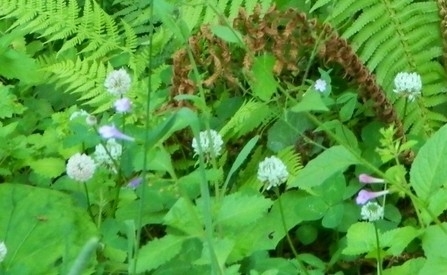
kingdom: Plantae
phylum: Tracheophyta
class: Magnoliopsida
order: Fabales
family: Fabaceae
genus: Trifolium
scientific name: Trifolium repens
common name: White clover
